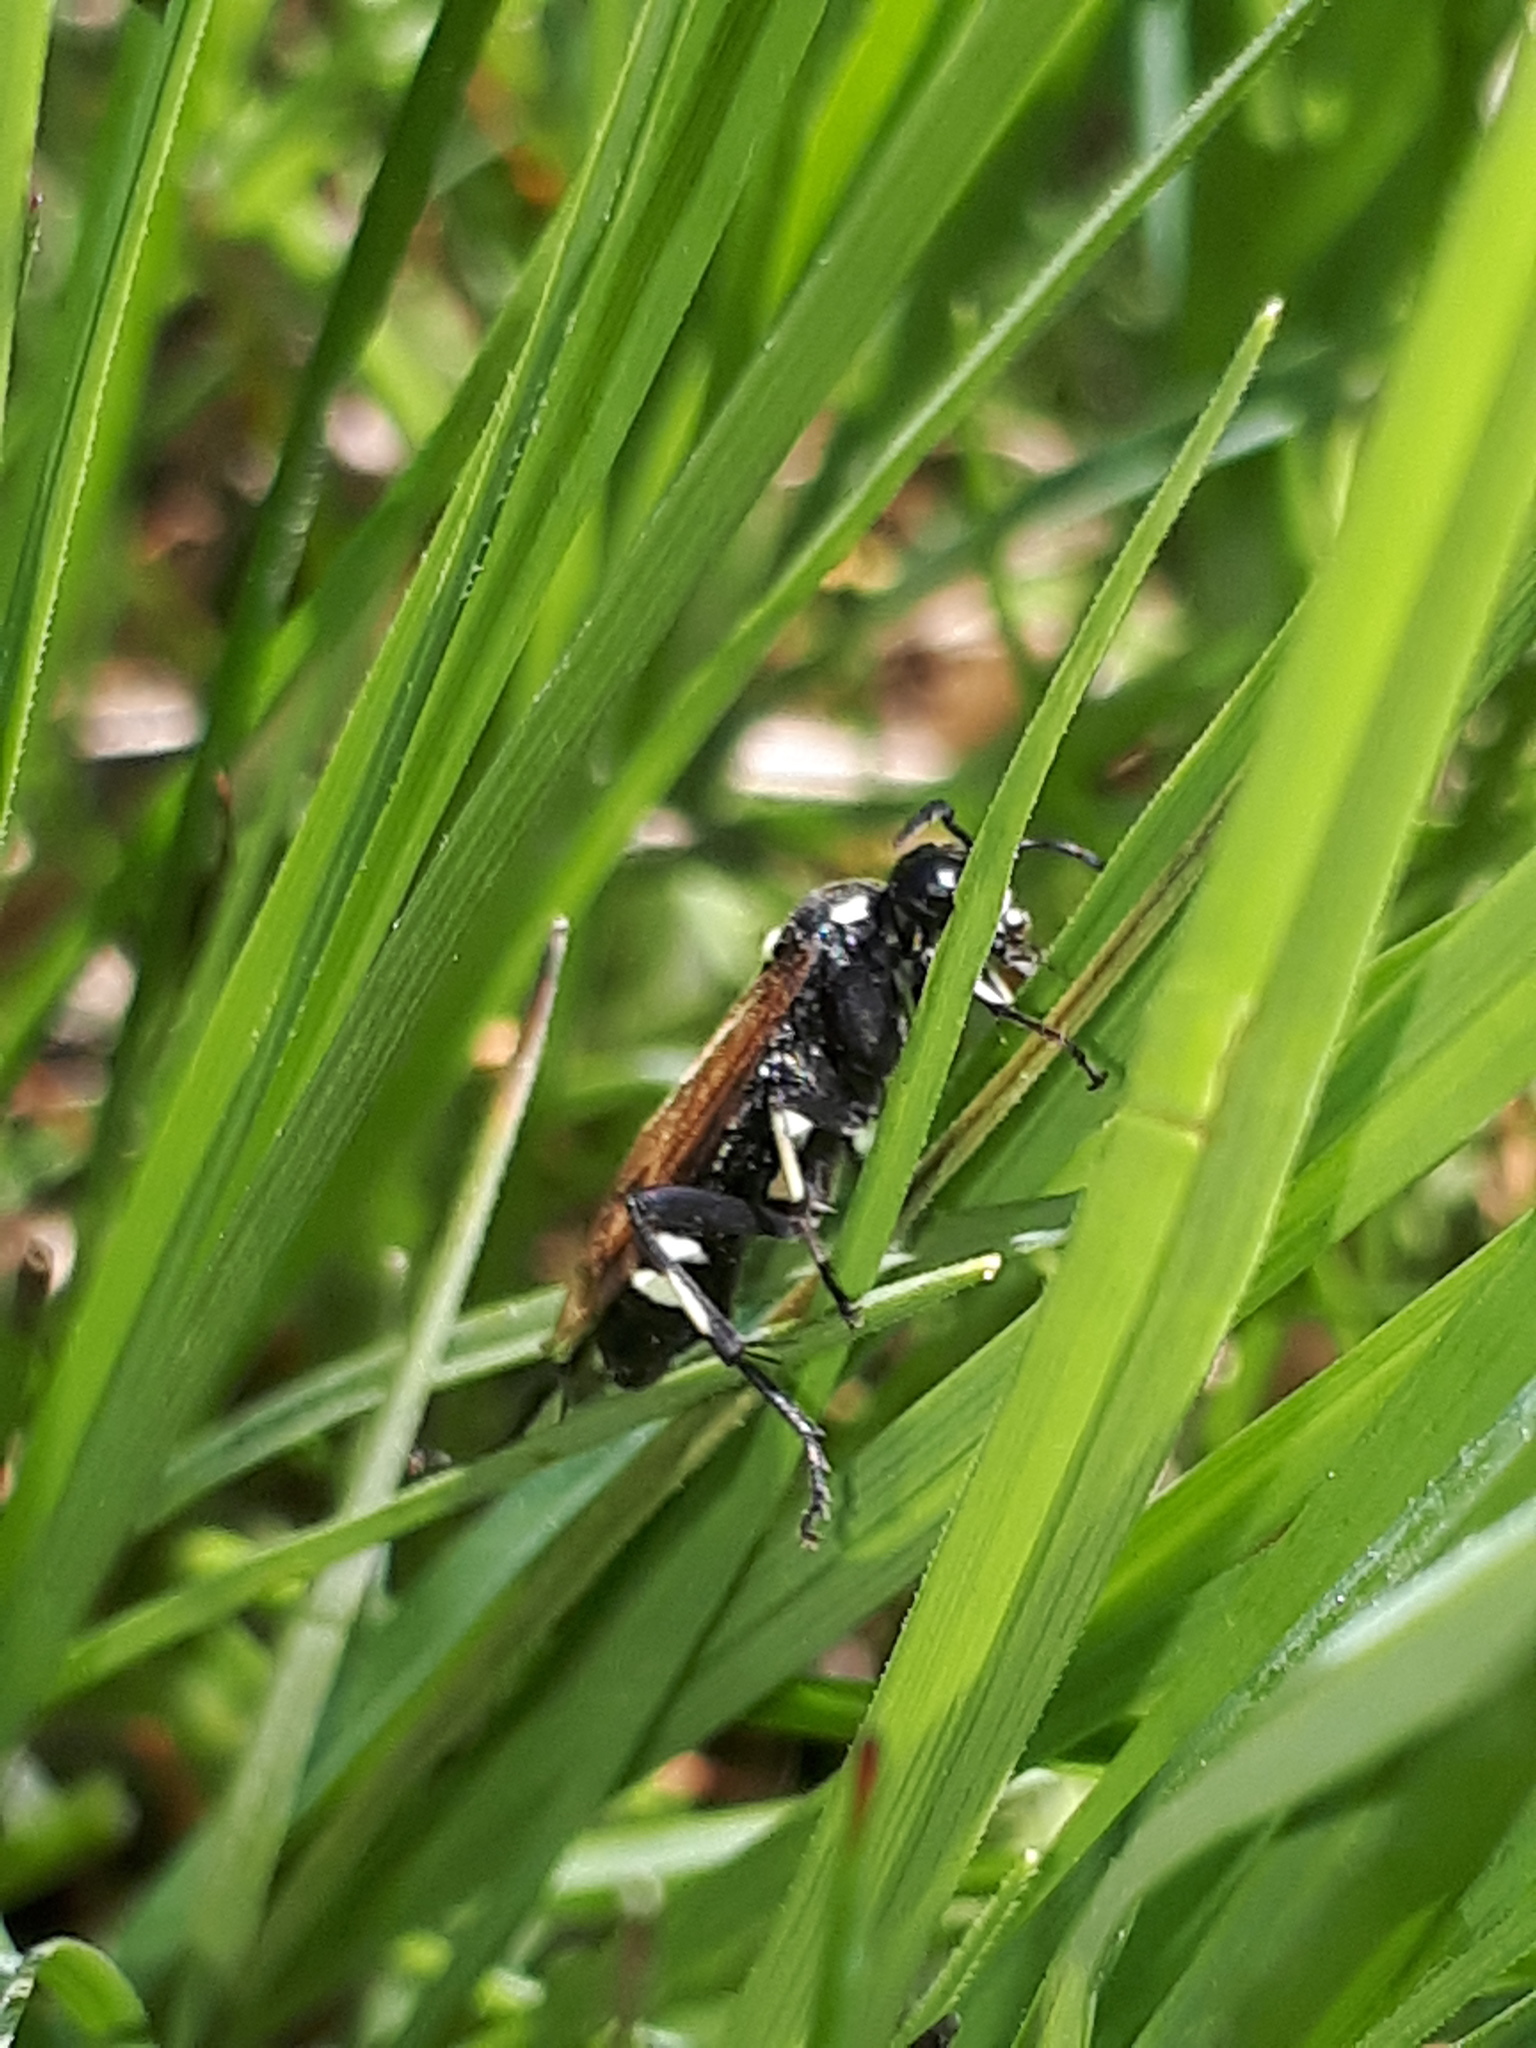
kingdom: Animalia
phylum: Arthropoda
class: Insecta
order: Hymenoptera
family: Tenthredinidae
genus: Macrophya
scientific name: Macrophya duodecimpunctata
